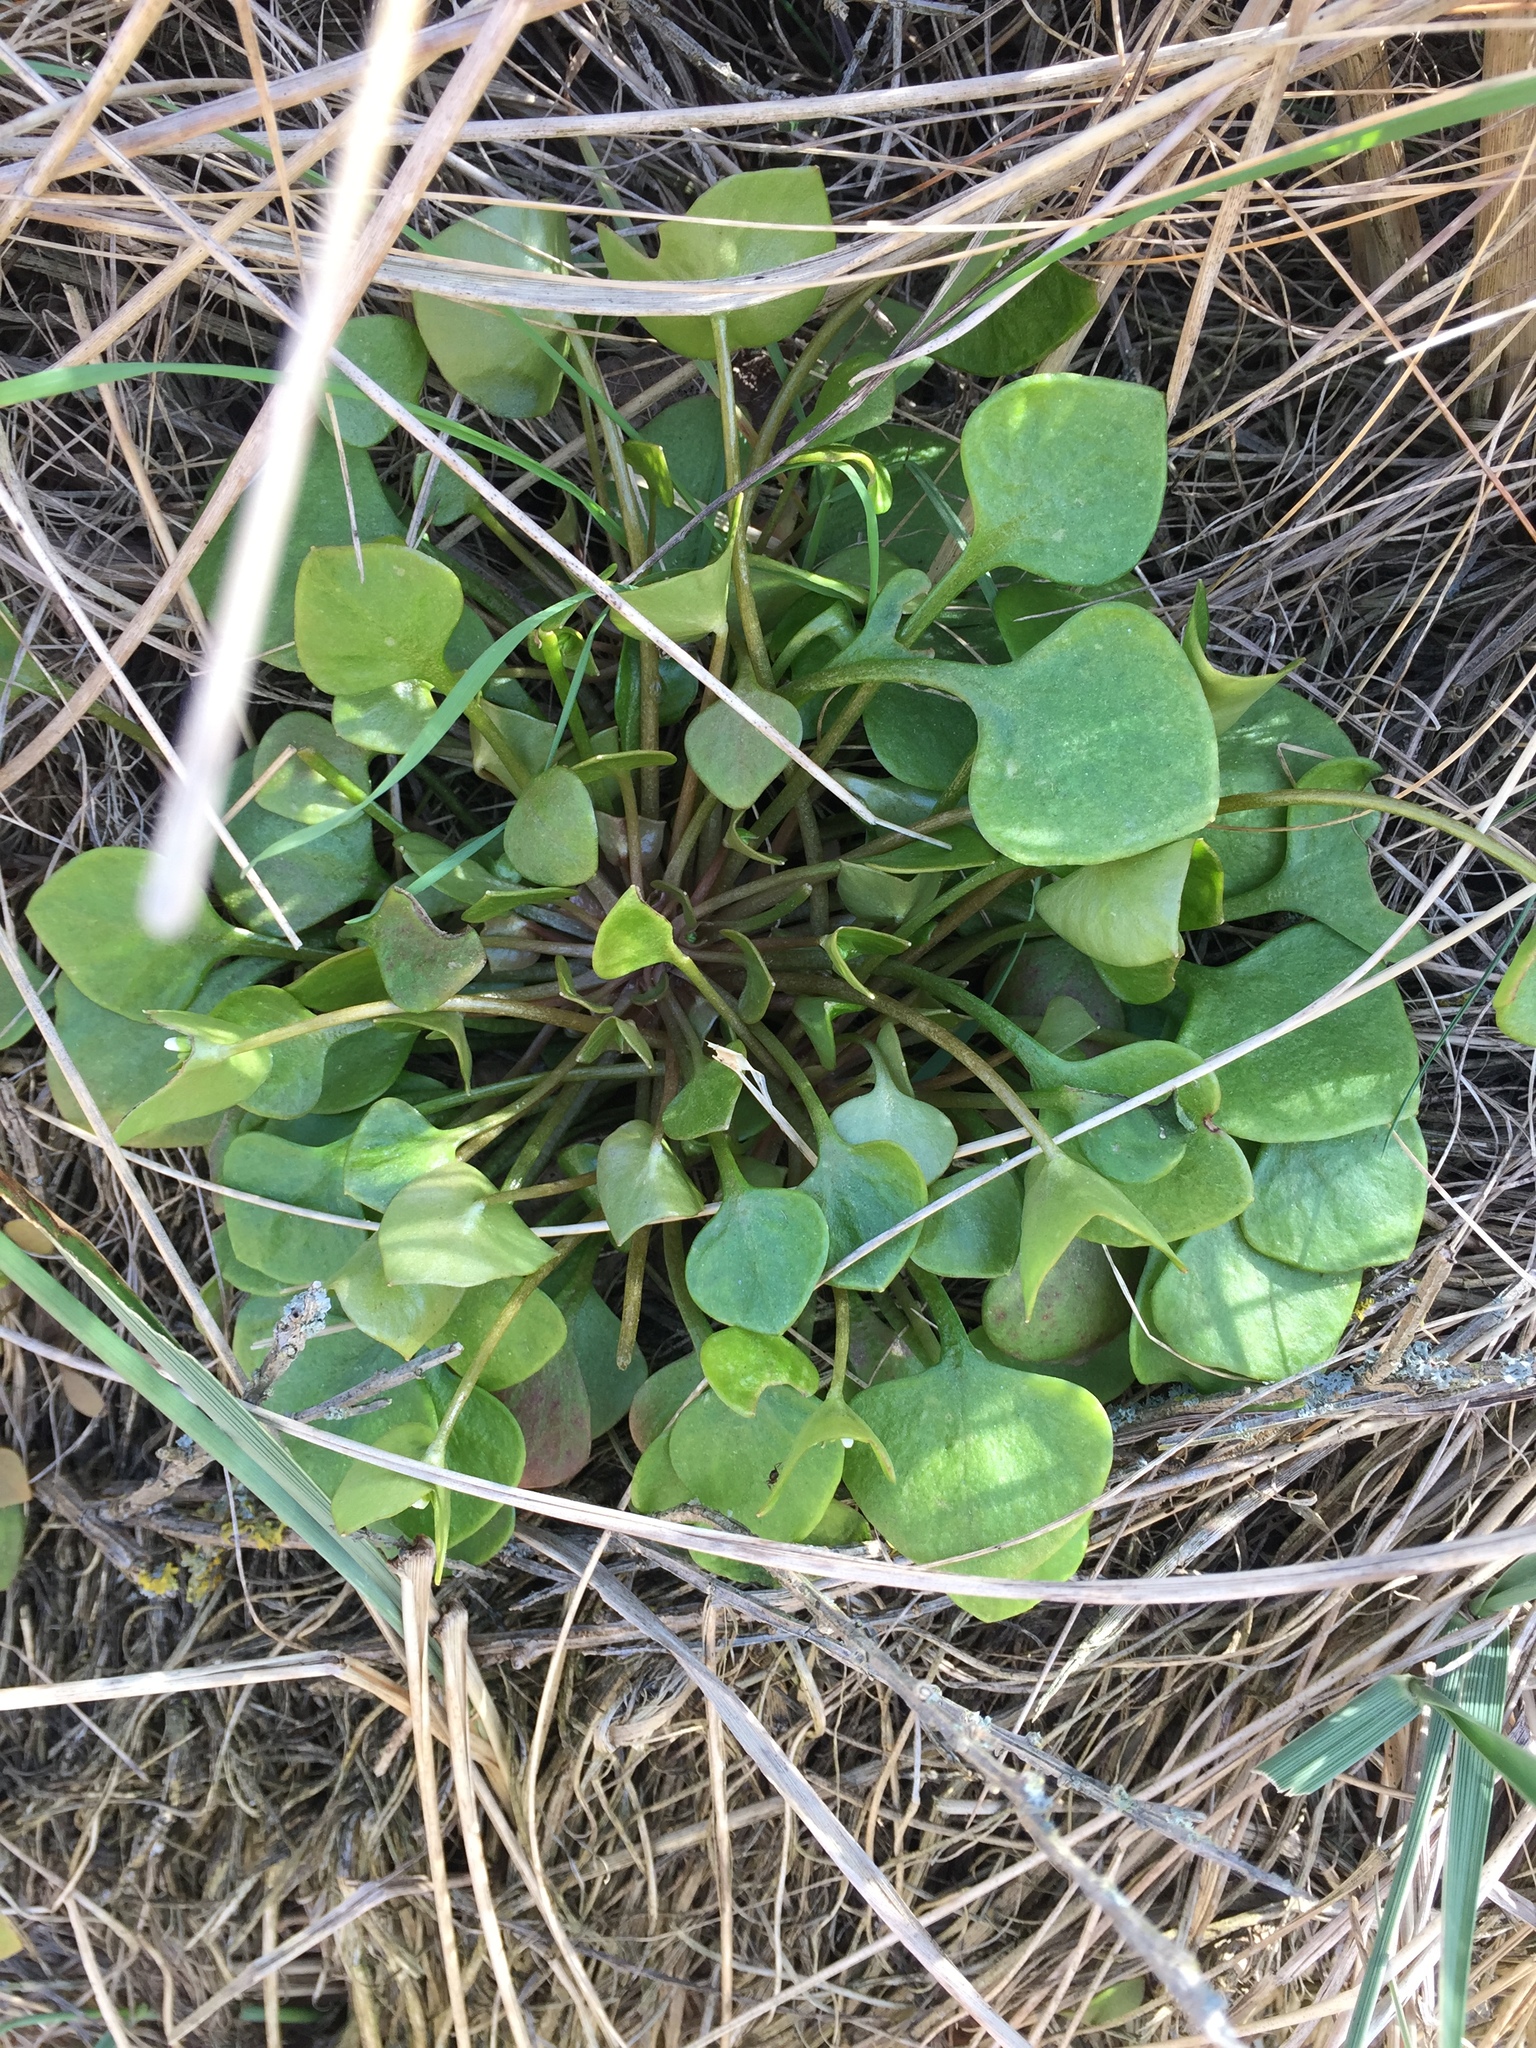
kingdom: Plantae
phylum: Tracheophyta
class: Magnoliopsida
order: Caryophyllales
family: Montiaceae
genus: Claytonia
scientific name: Claytonia perfoliata
